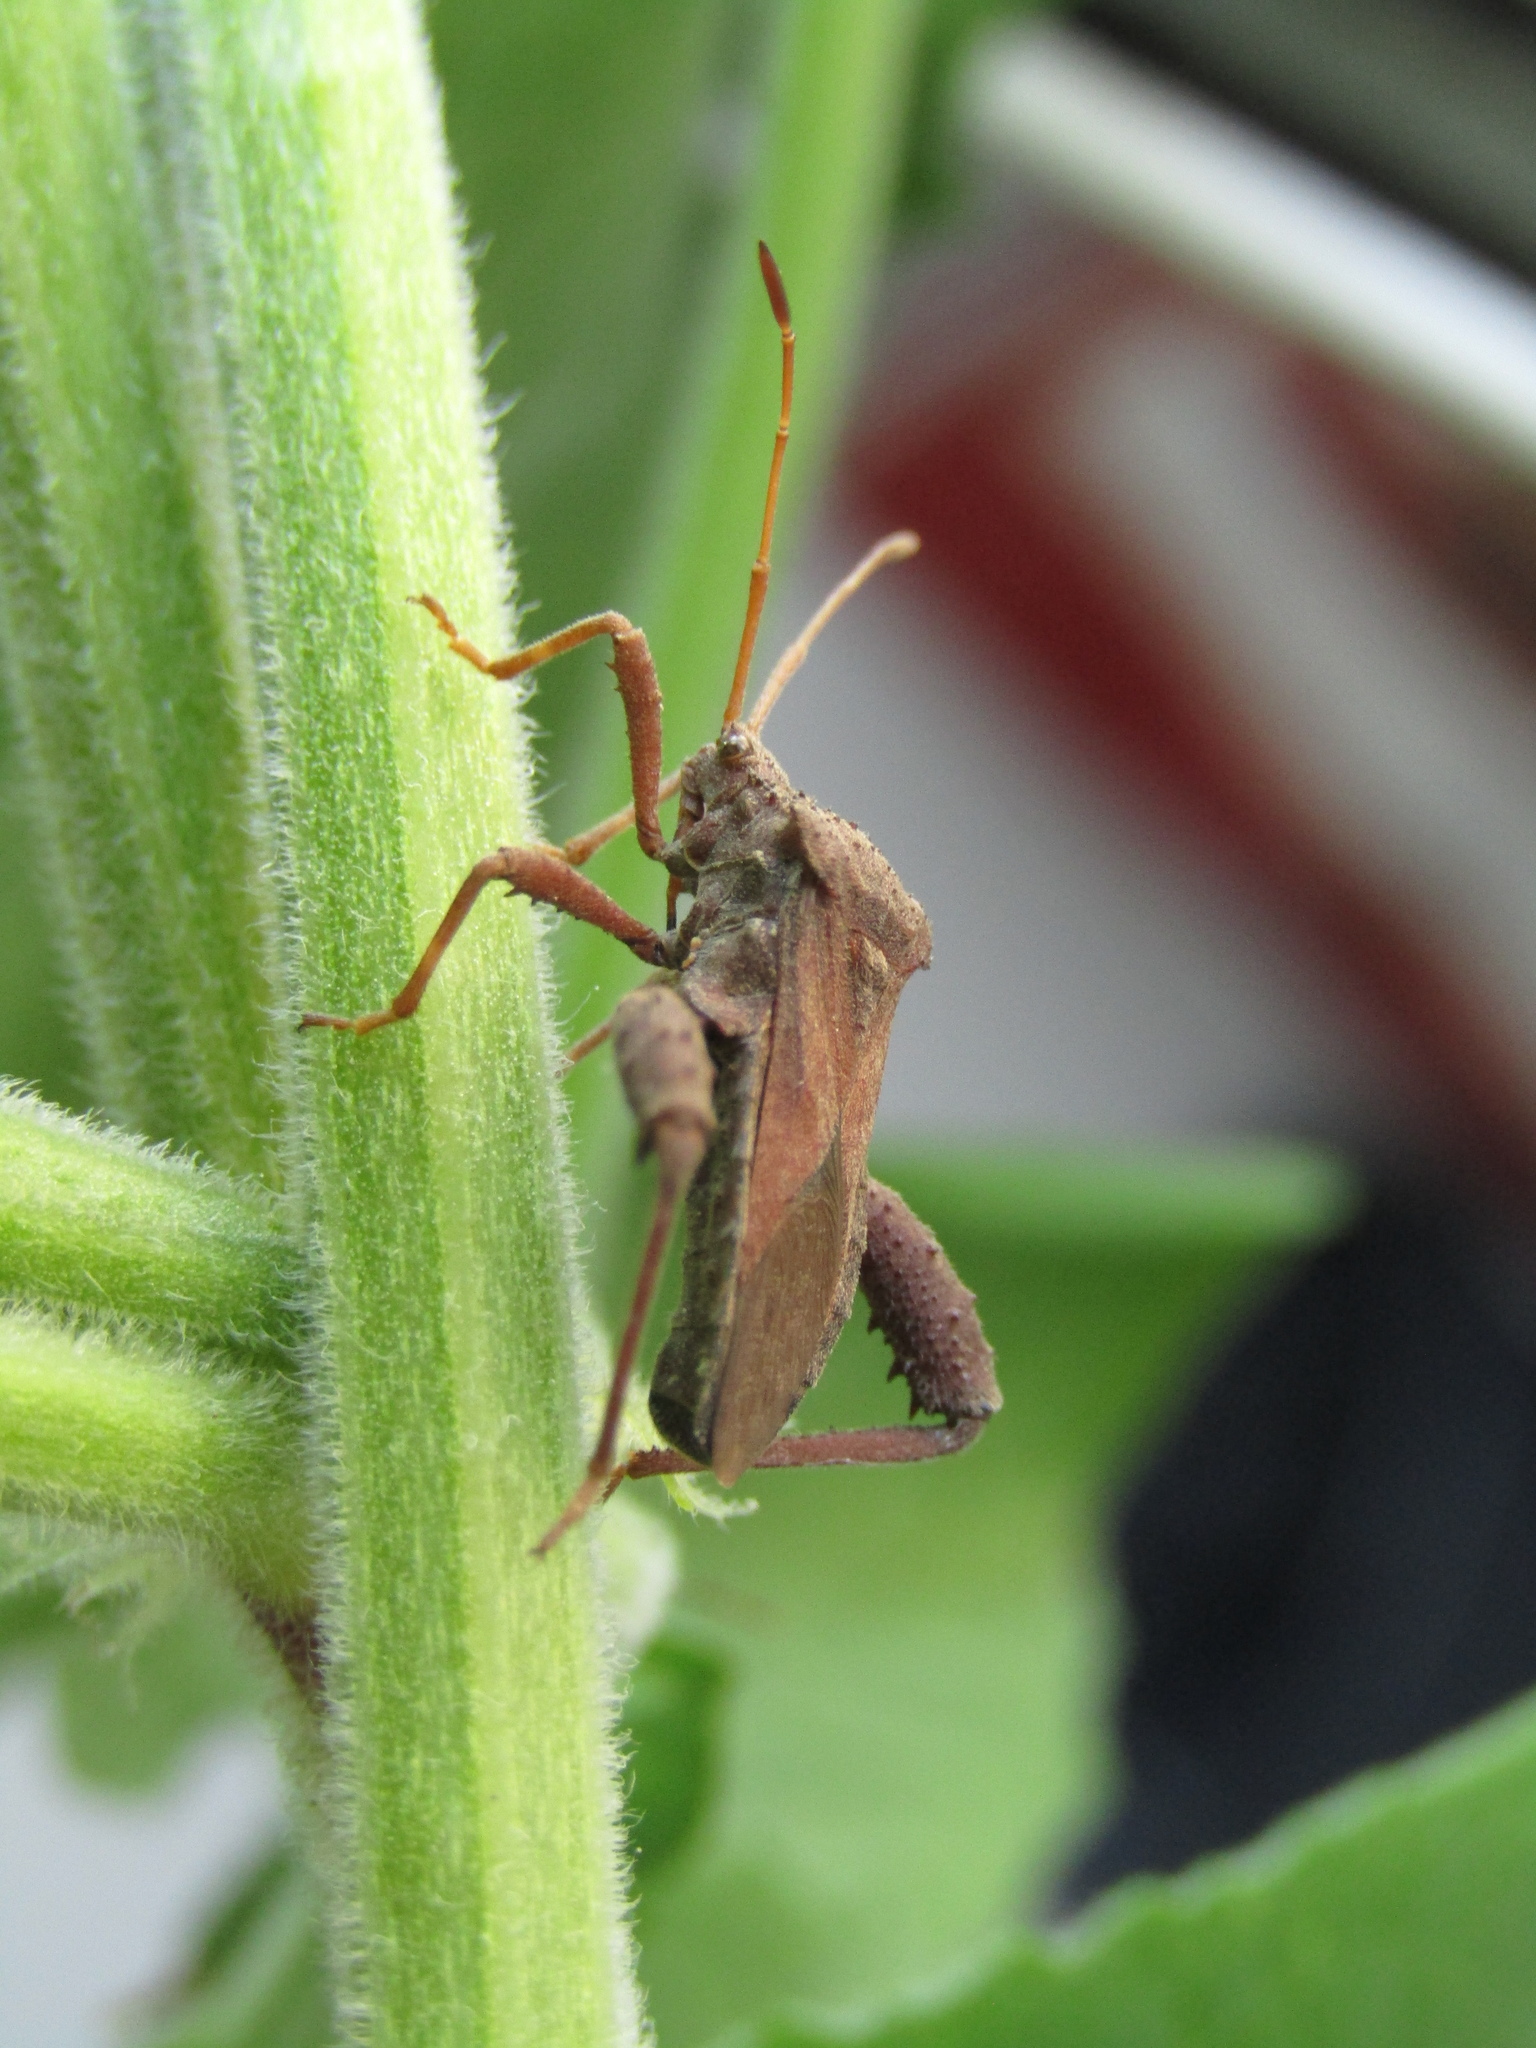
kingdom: Animalia
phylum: Arthropoda
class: Insecta
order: Hemiptera
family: Coreidae
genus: Camptischium
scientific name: Camptischium clavipes
